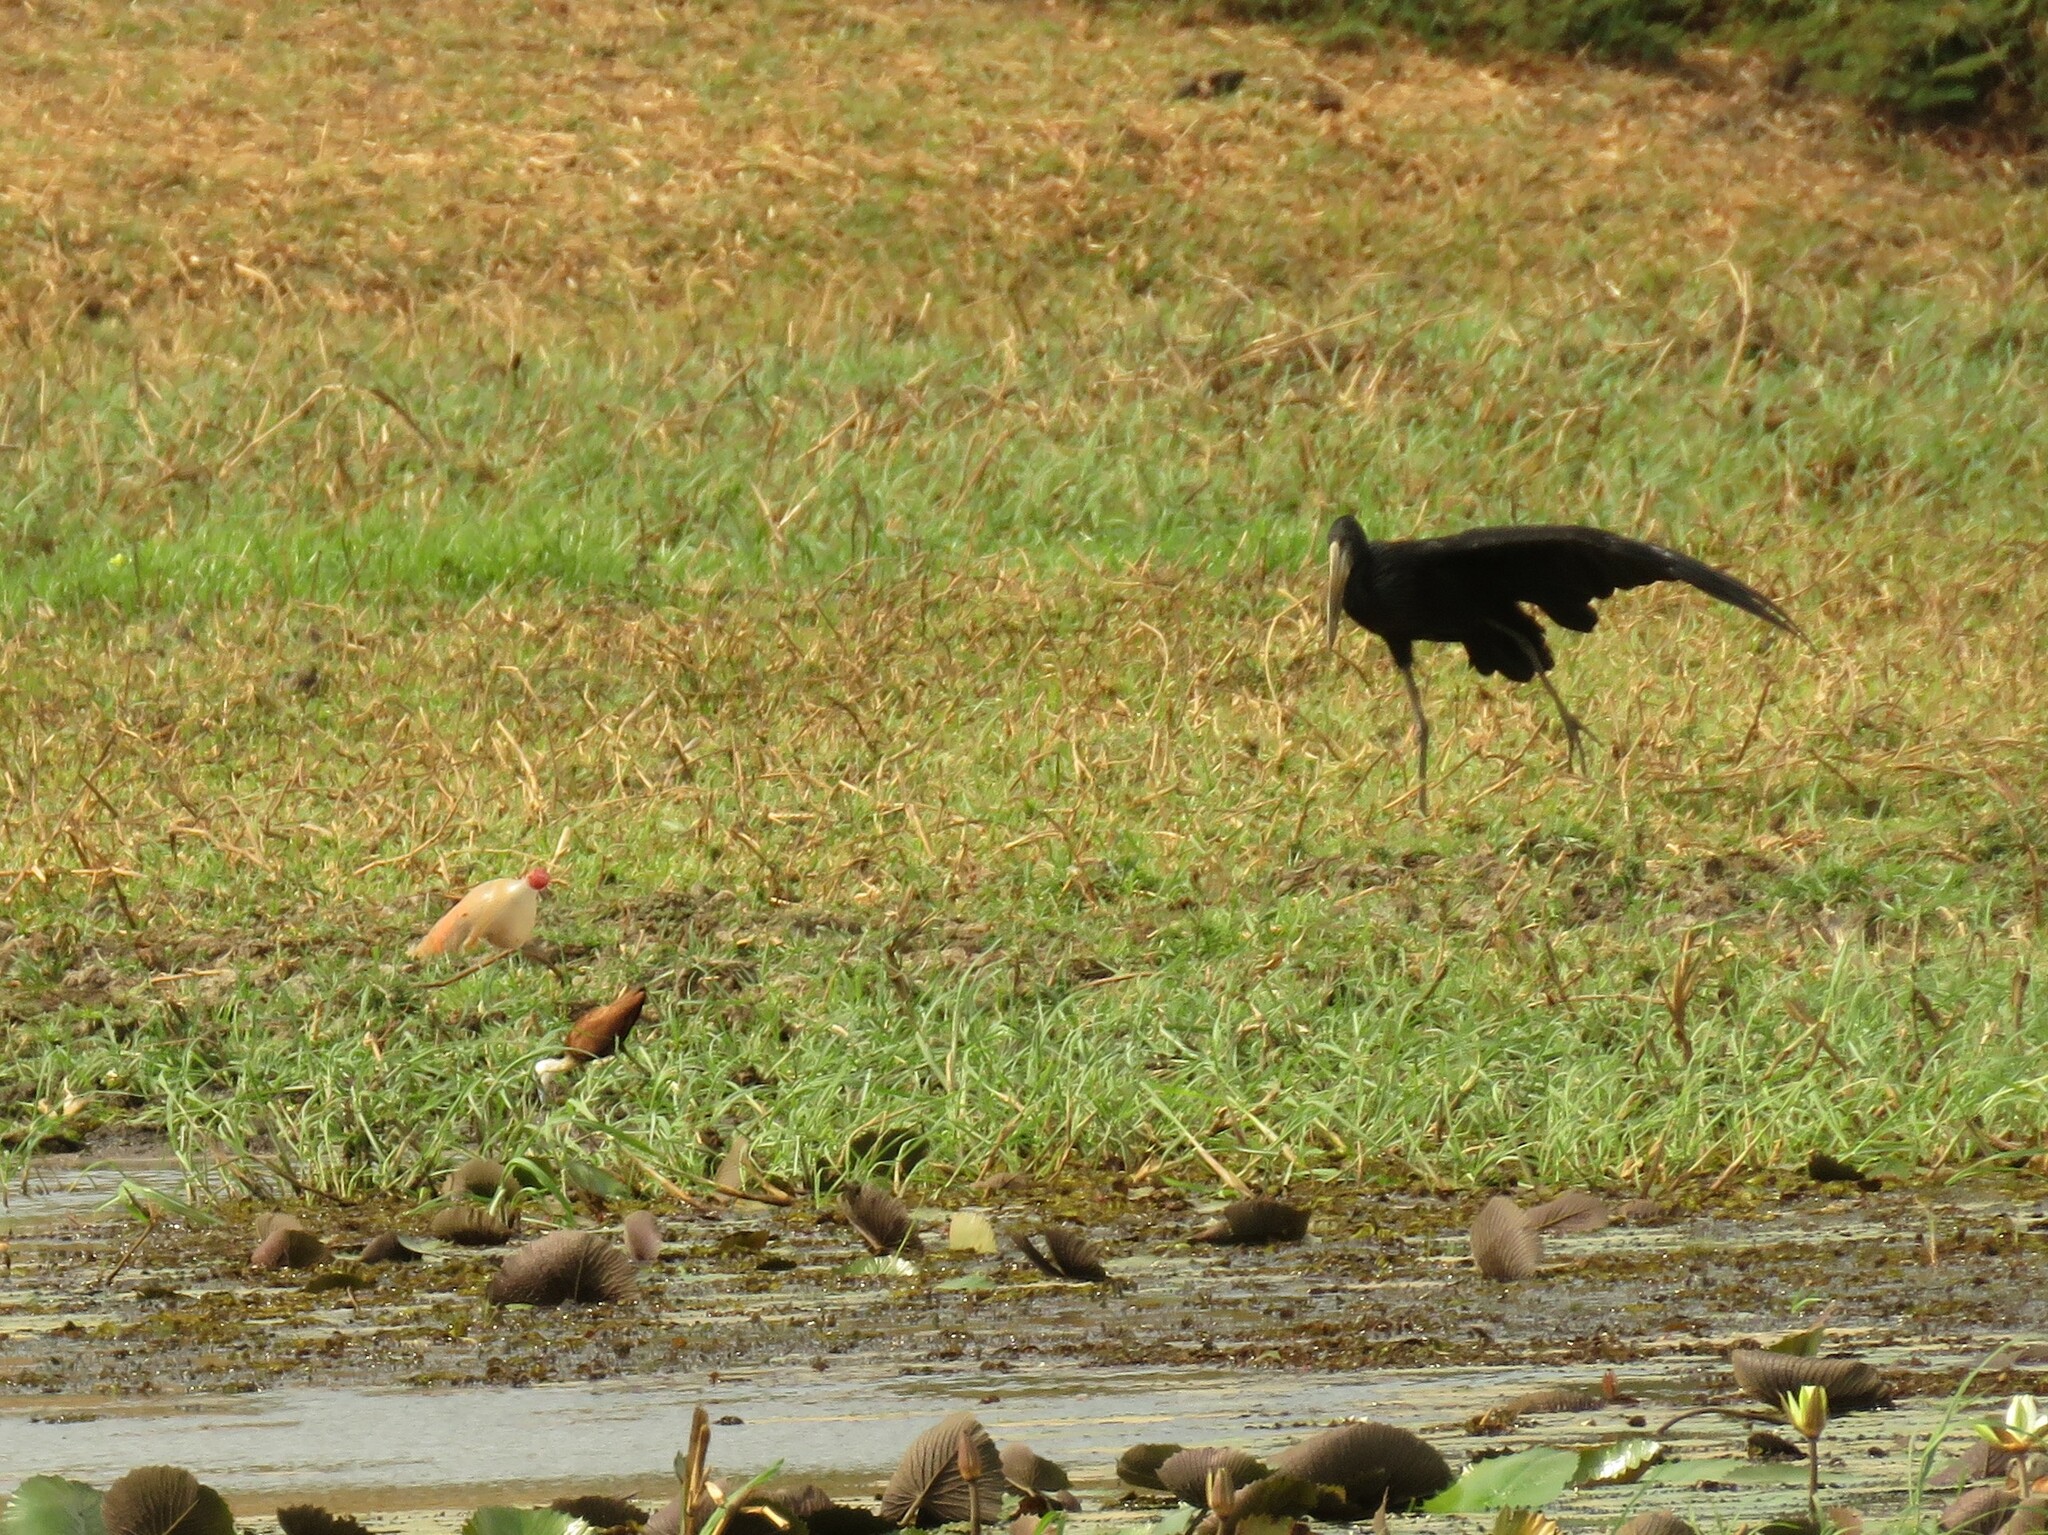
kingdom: Animalia
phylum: Chordata
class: Aves
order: Ciconiiformes
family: Ciconiidae
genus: Anastomus
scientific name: Anastomus lamelligerus
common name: African openbill
